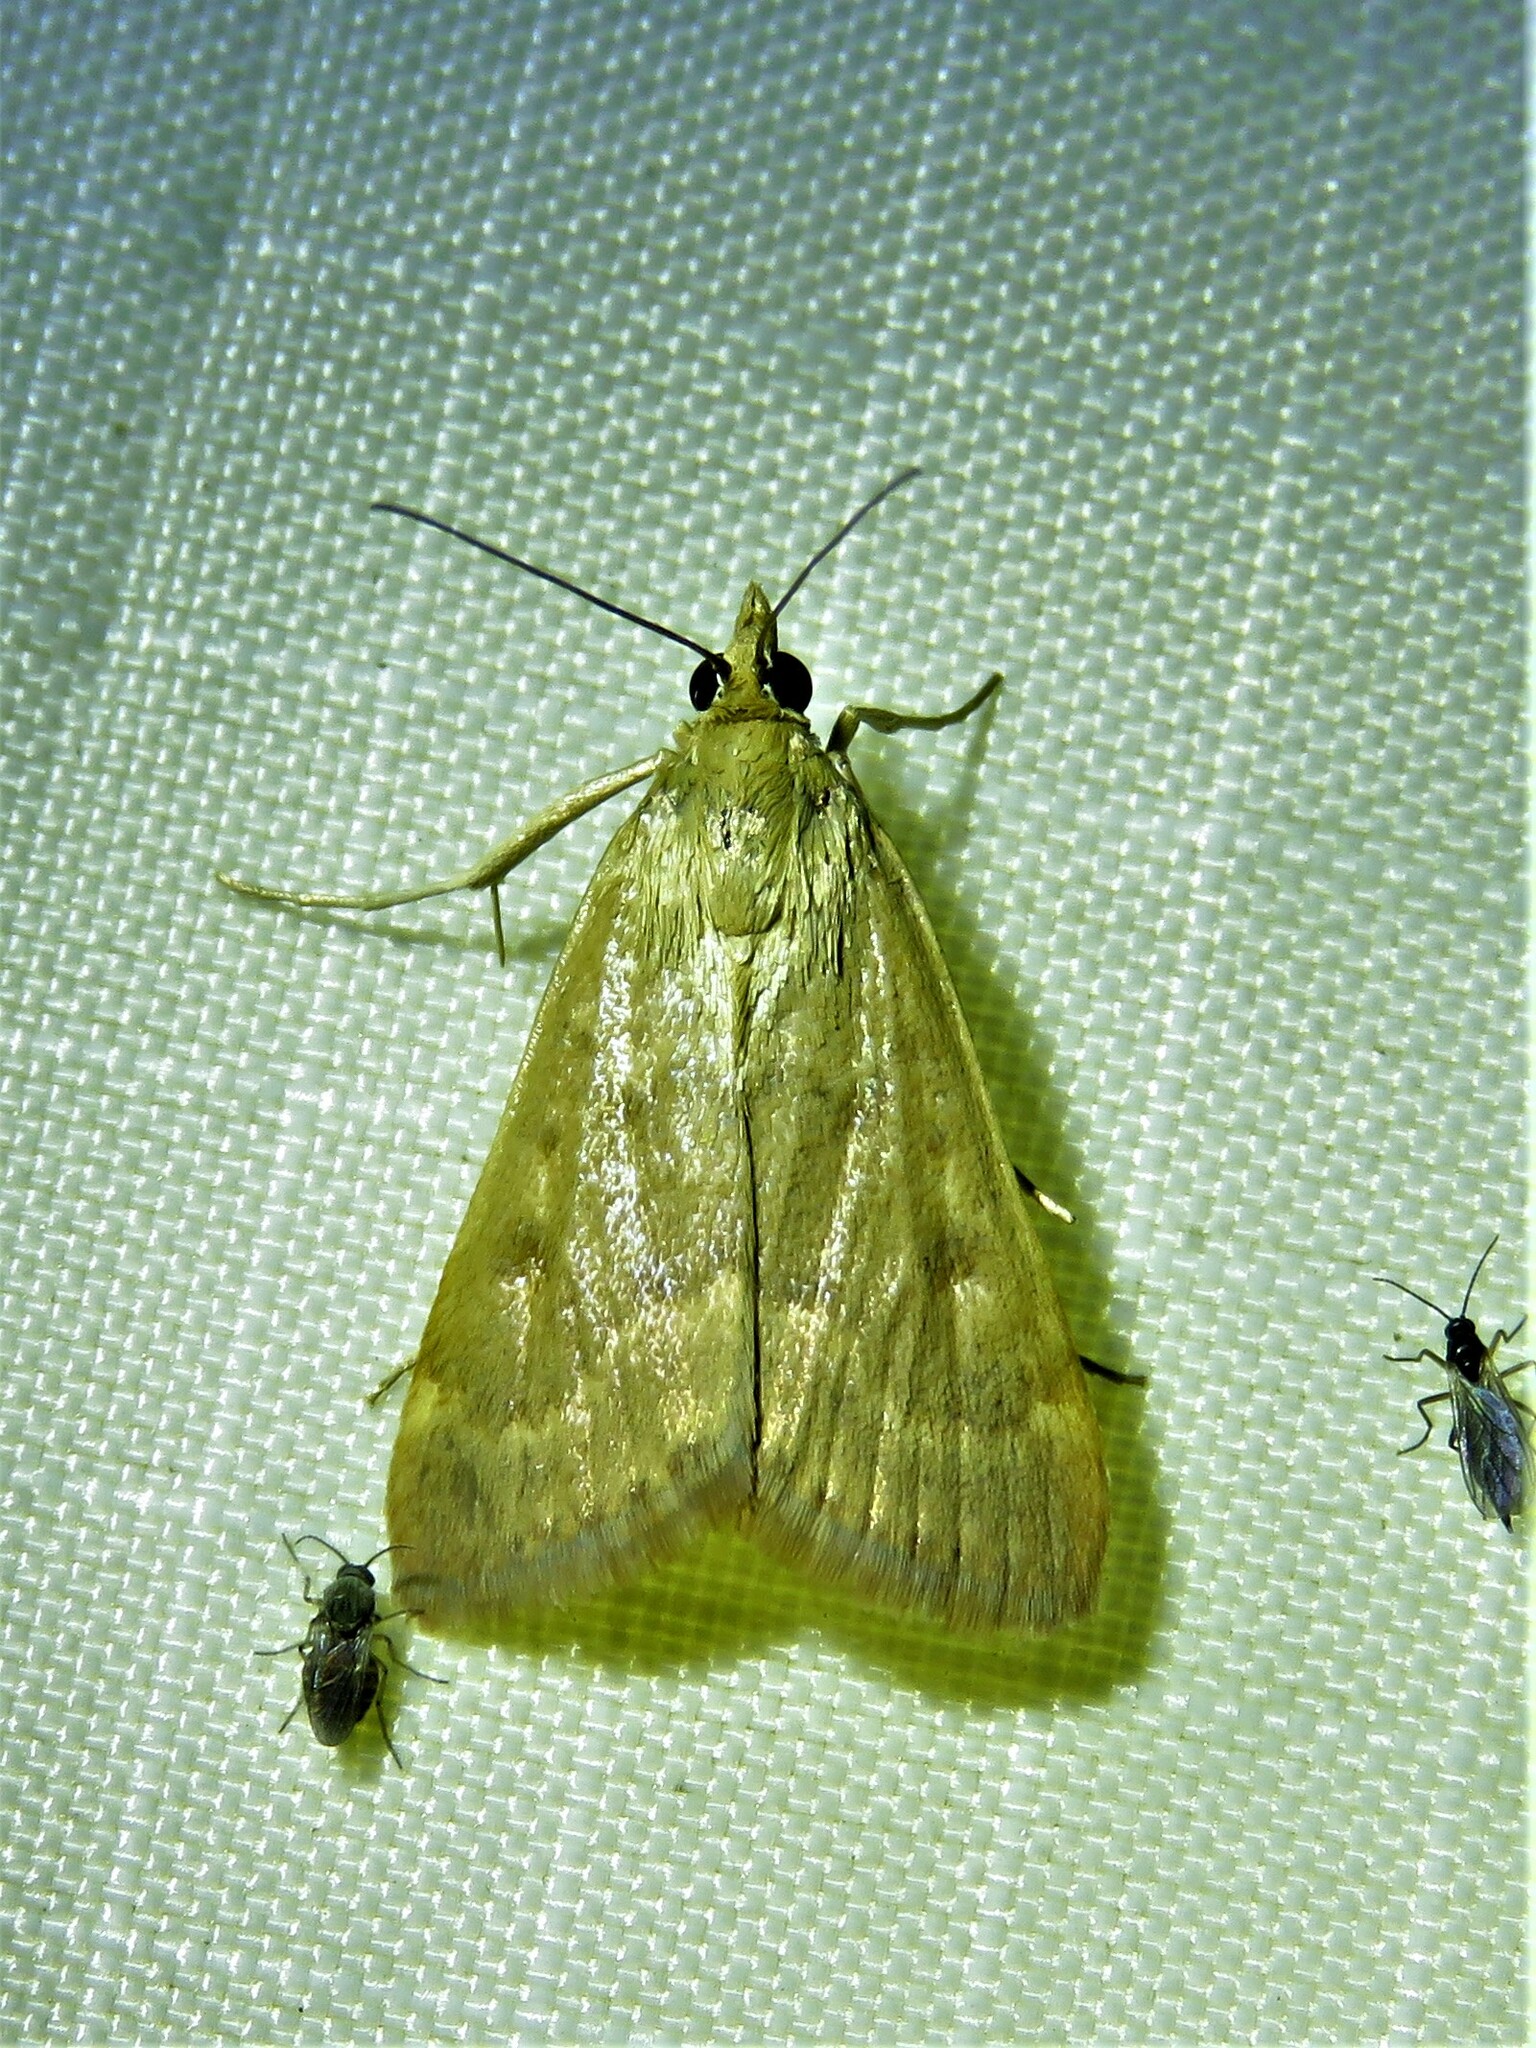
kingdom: Animalia
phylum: Arthropoda
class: Insecta
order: Lepidoptera
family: Crambidae
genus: Achyra
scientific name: Achyra rantalis
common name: Garden webworm
